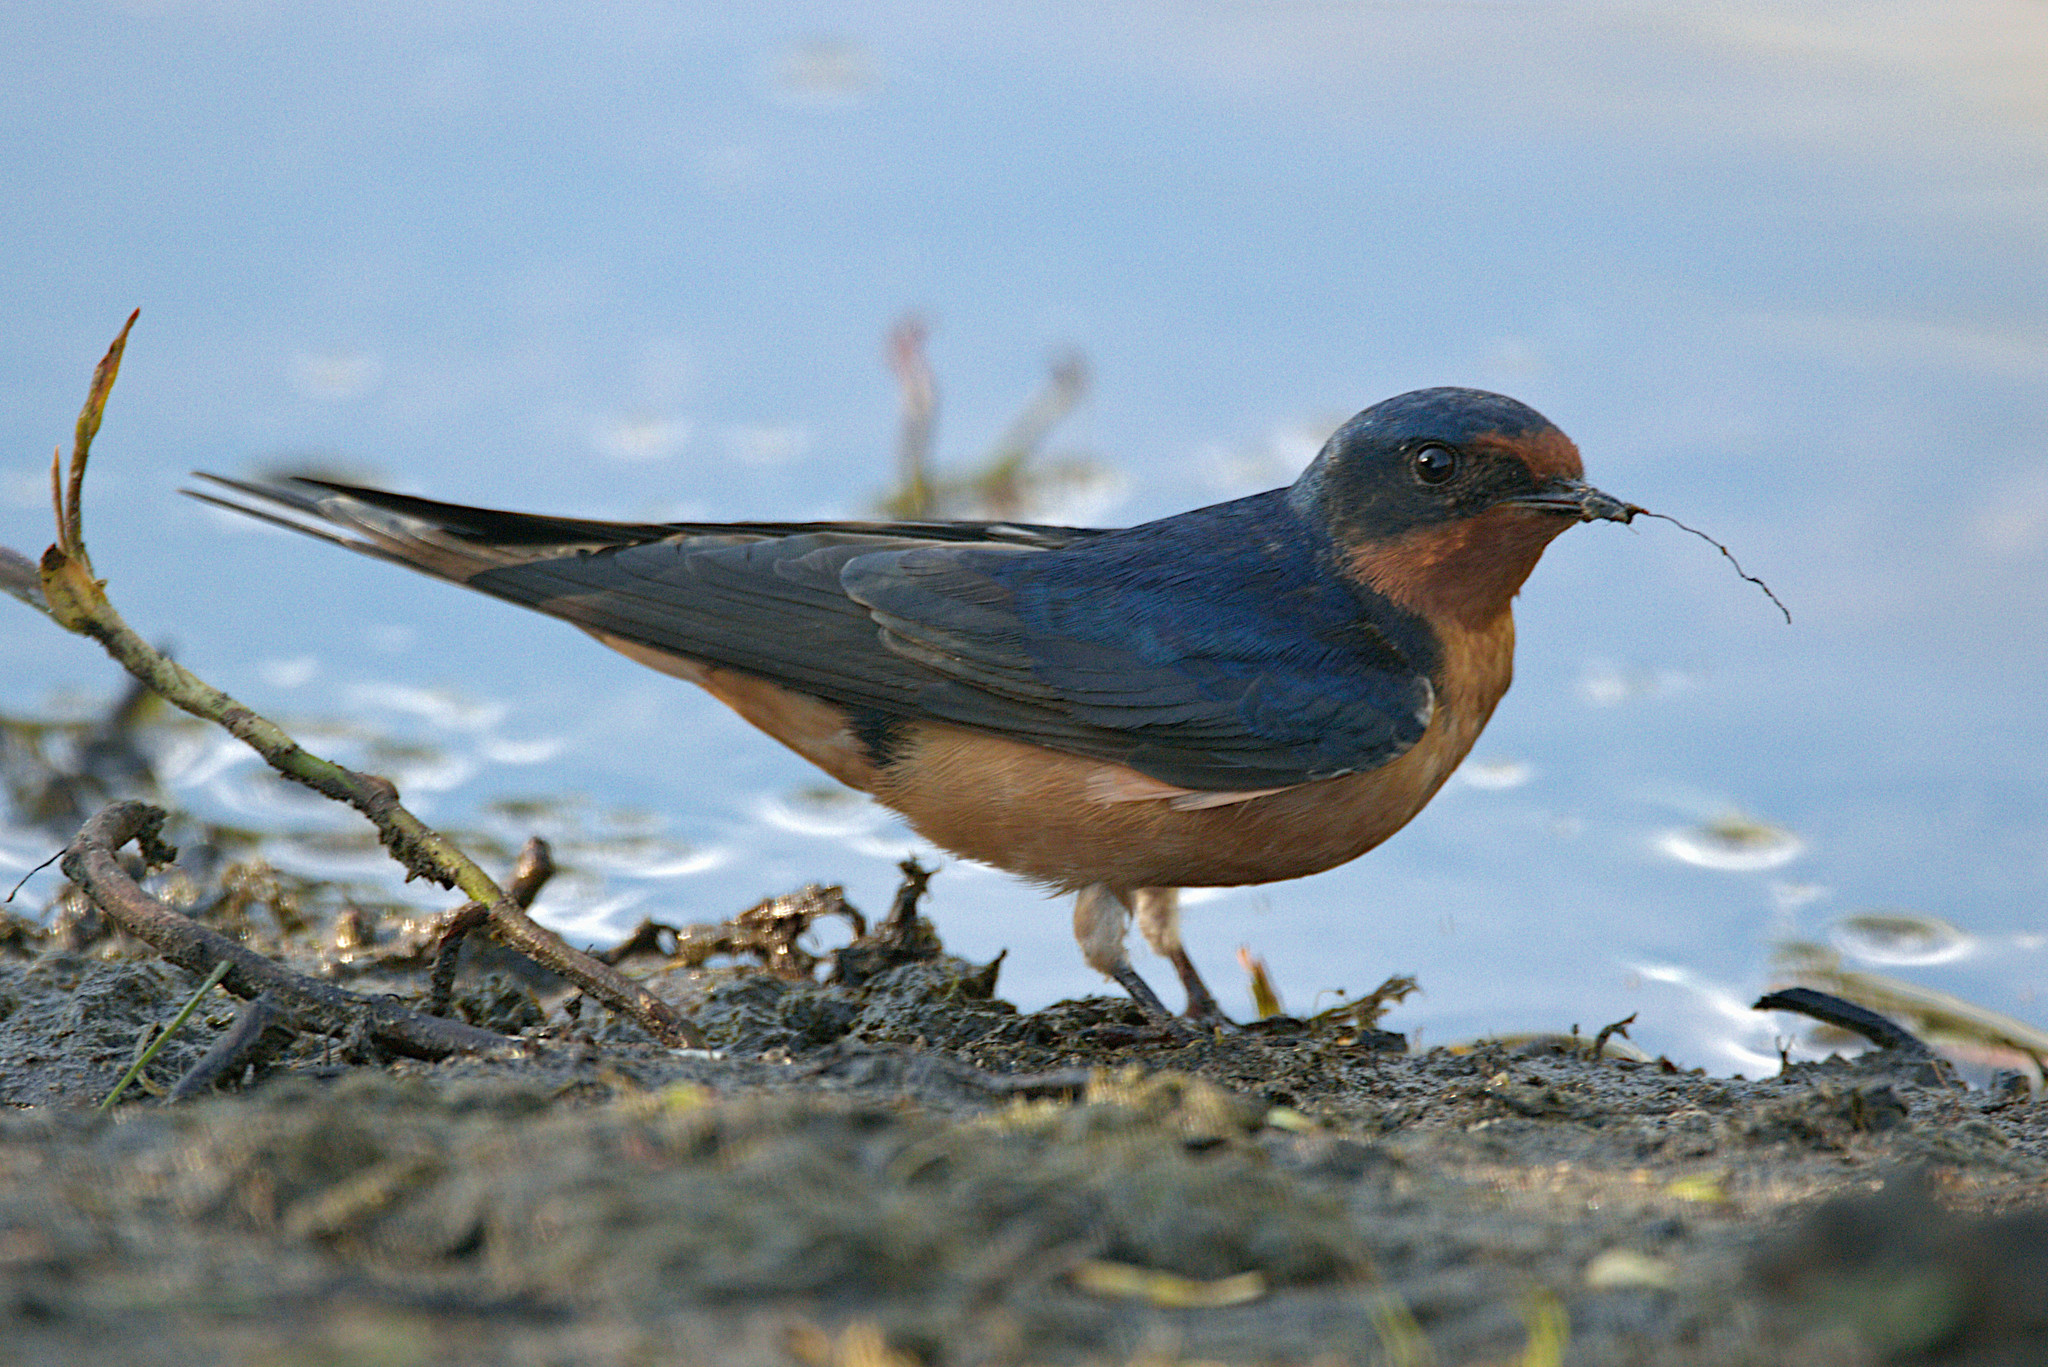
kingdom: Animalia
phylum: Chordata
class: Aves
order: Passeriformes
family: Hirundinidae
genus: Hirundo
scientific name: Hirundo rustica
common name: Barn swallow
